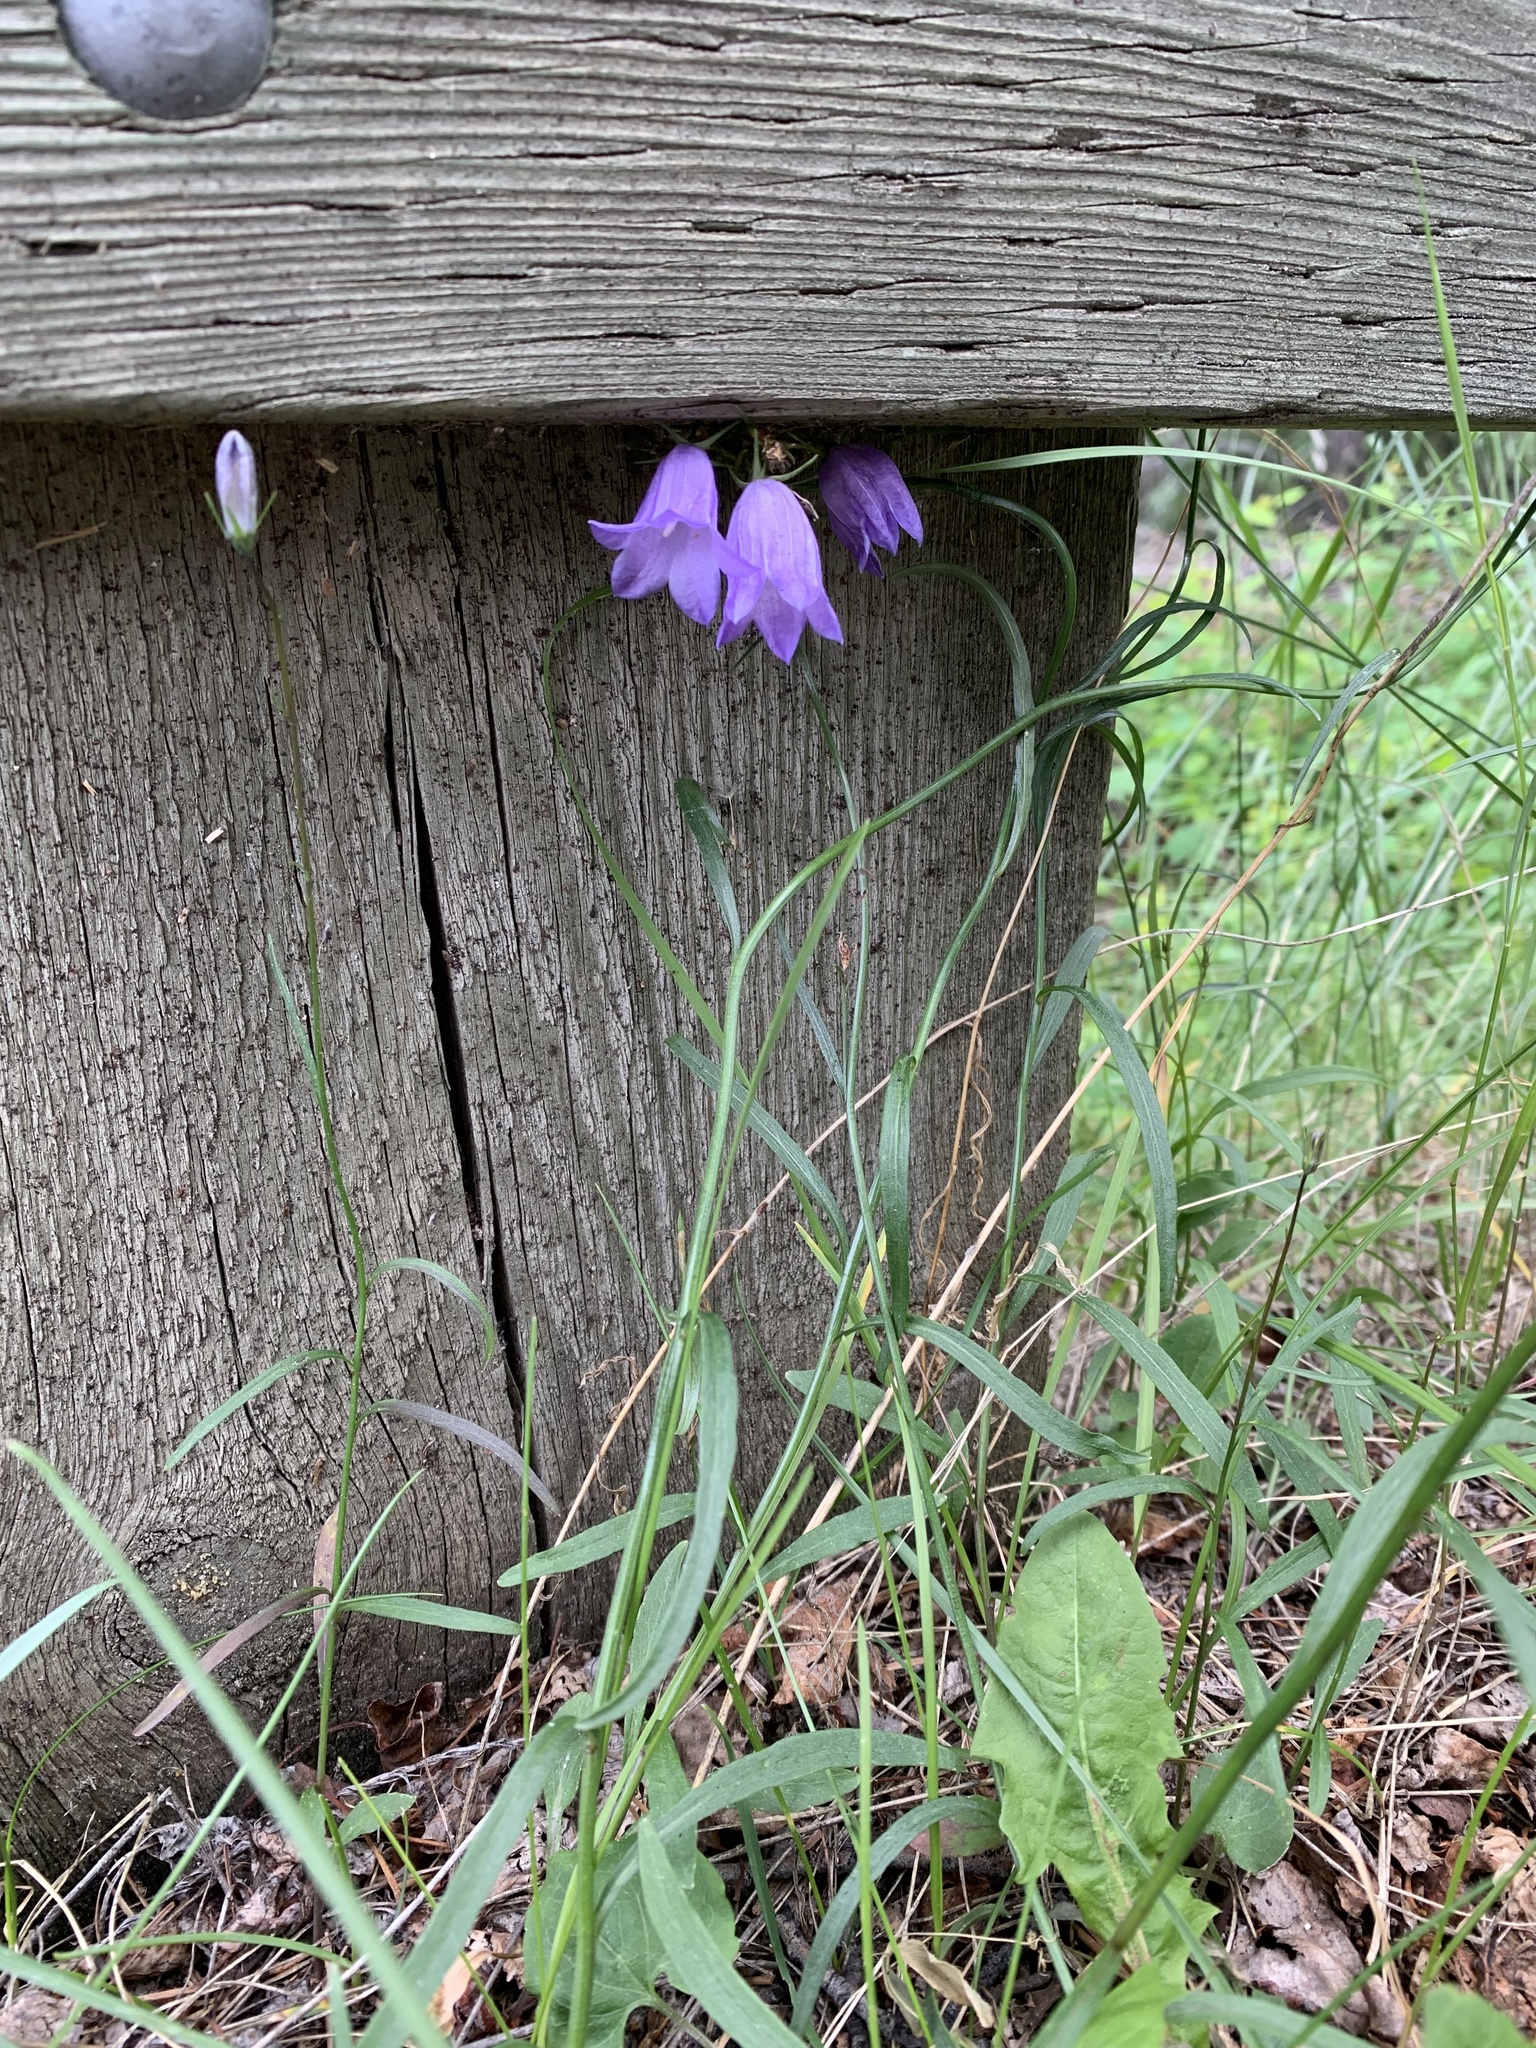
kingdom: Plantae
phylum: Tracheophyta
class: Magnoliopsida
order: Asterales
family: Campanulaceae
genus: Campanula
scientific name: Campanula alaskana
